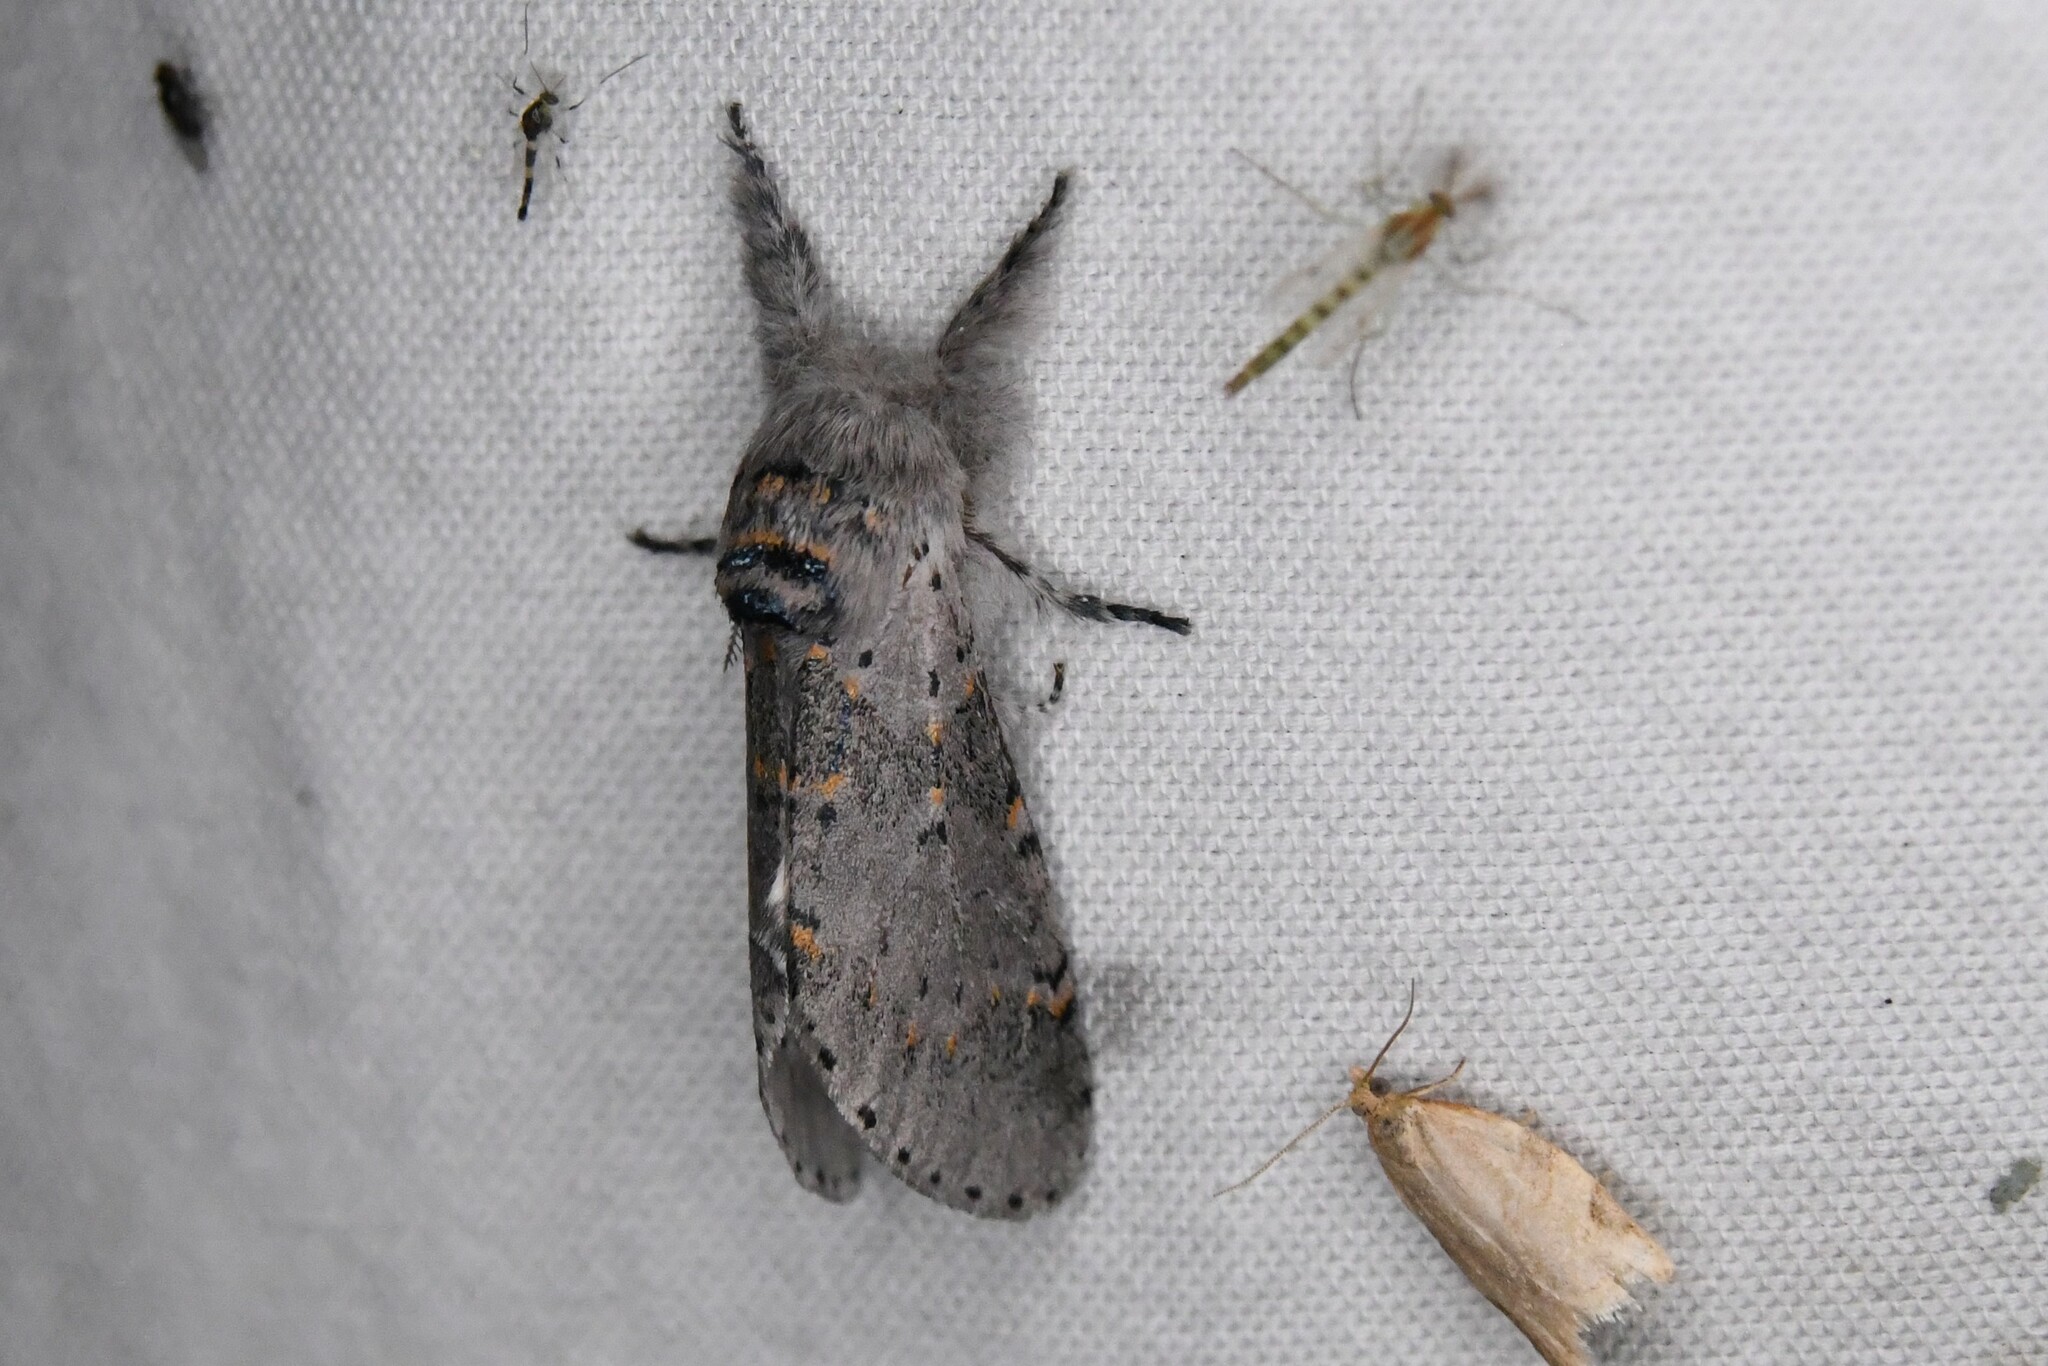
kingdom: Animalia
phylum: Arthropoda
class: Insecta
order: Lepidoptera
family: Notodontidae
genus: Furcula
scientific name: Furcula cinerea
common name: Gray furcula
